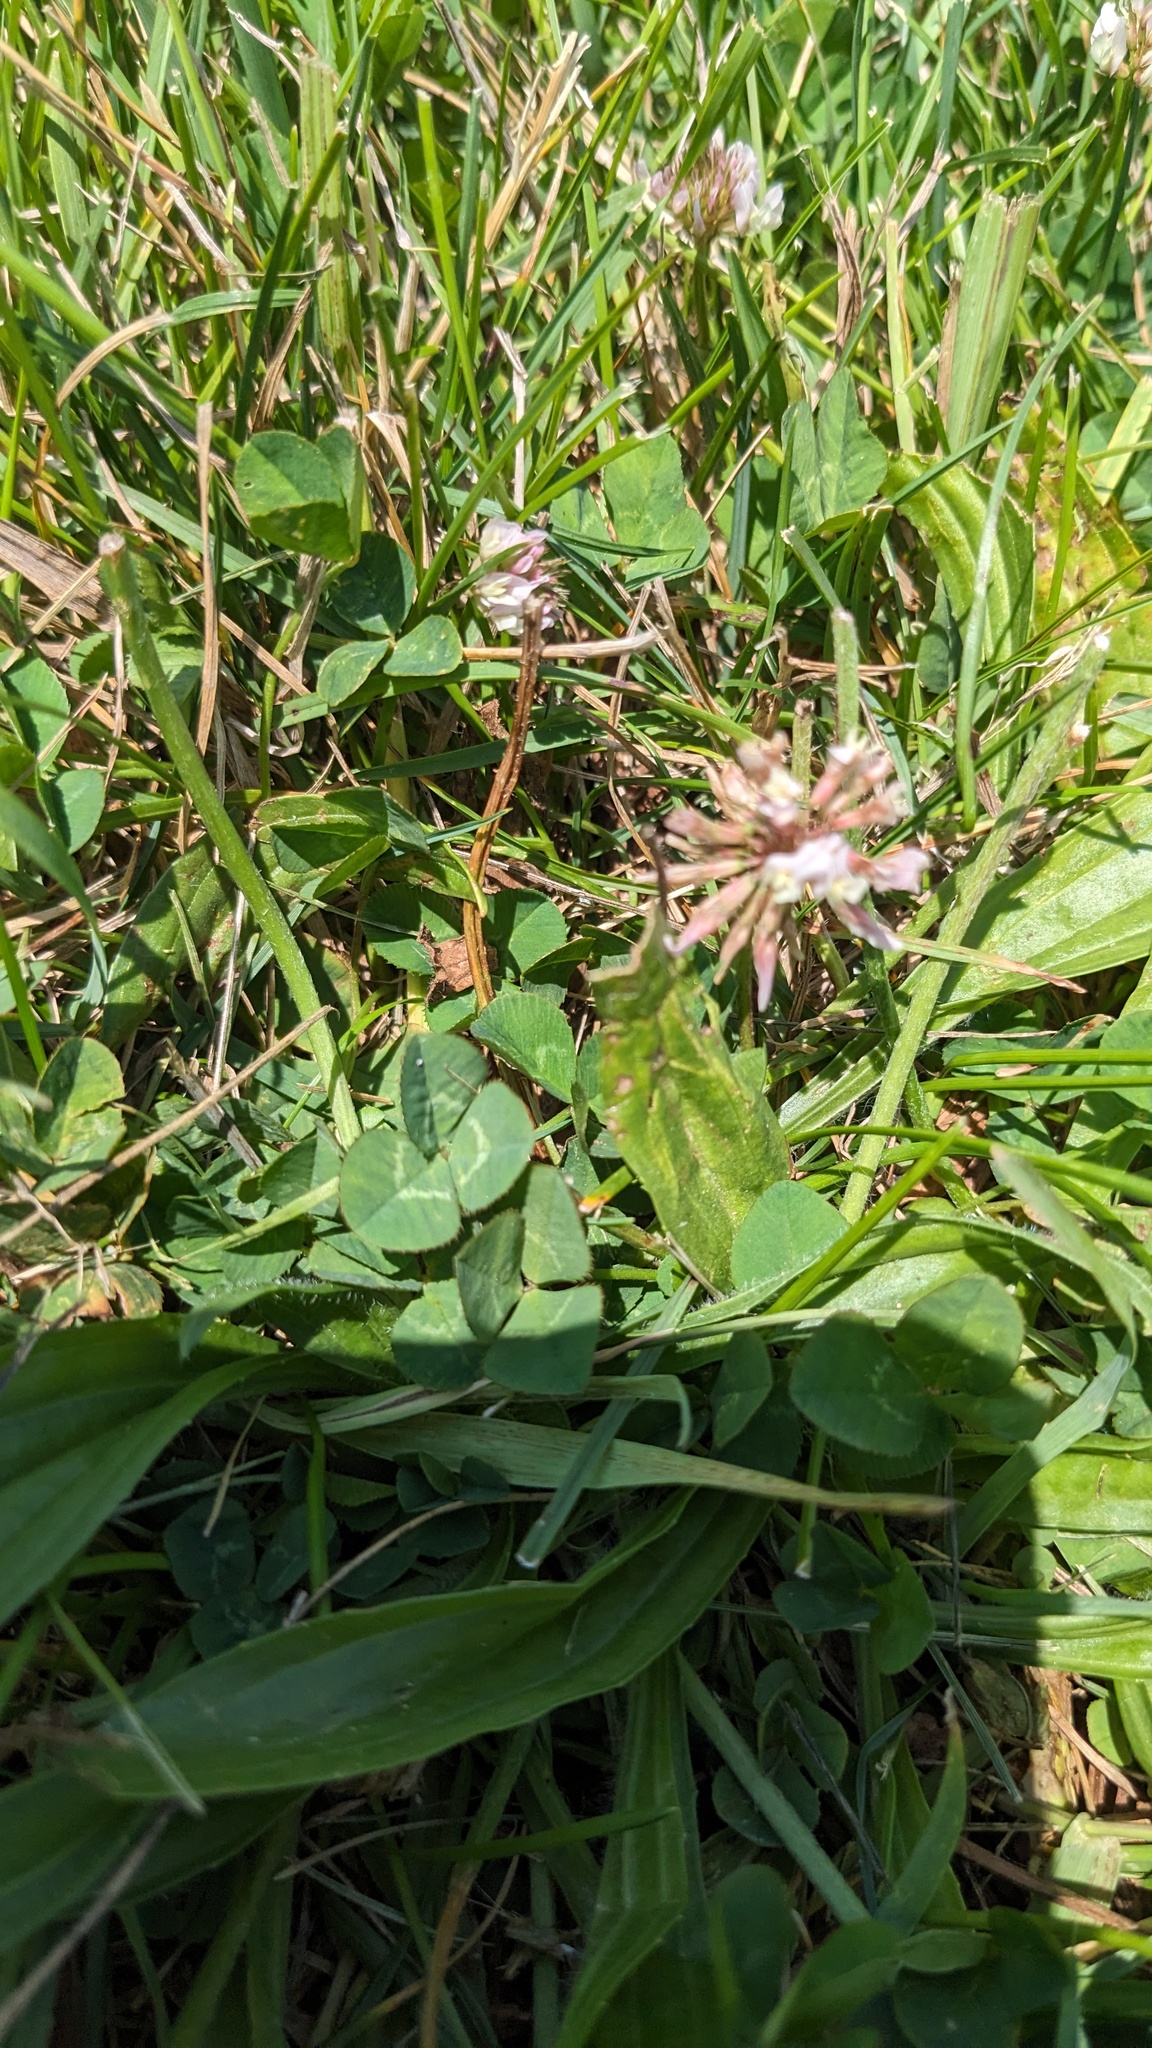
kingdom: Plantae
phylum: Tracheophyta
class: Magnoliopsida
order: Fabales
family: Fabaceae
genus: Trifolium
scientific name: Trifolium repens
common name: White clover
